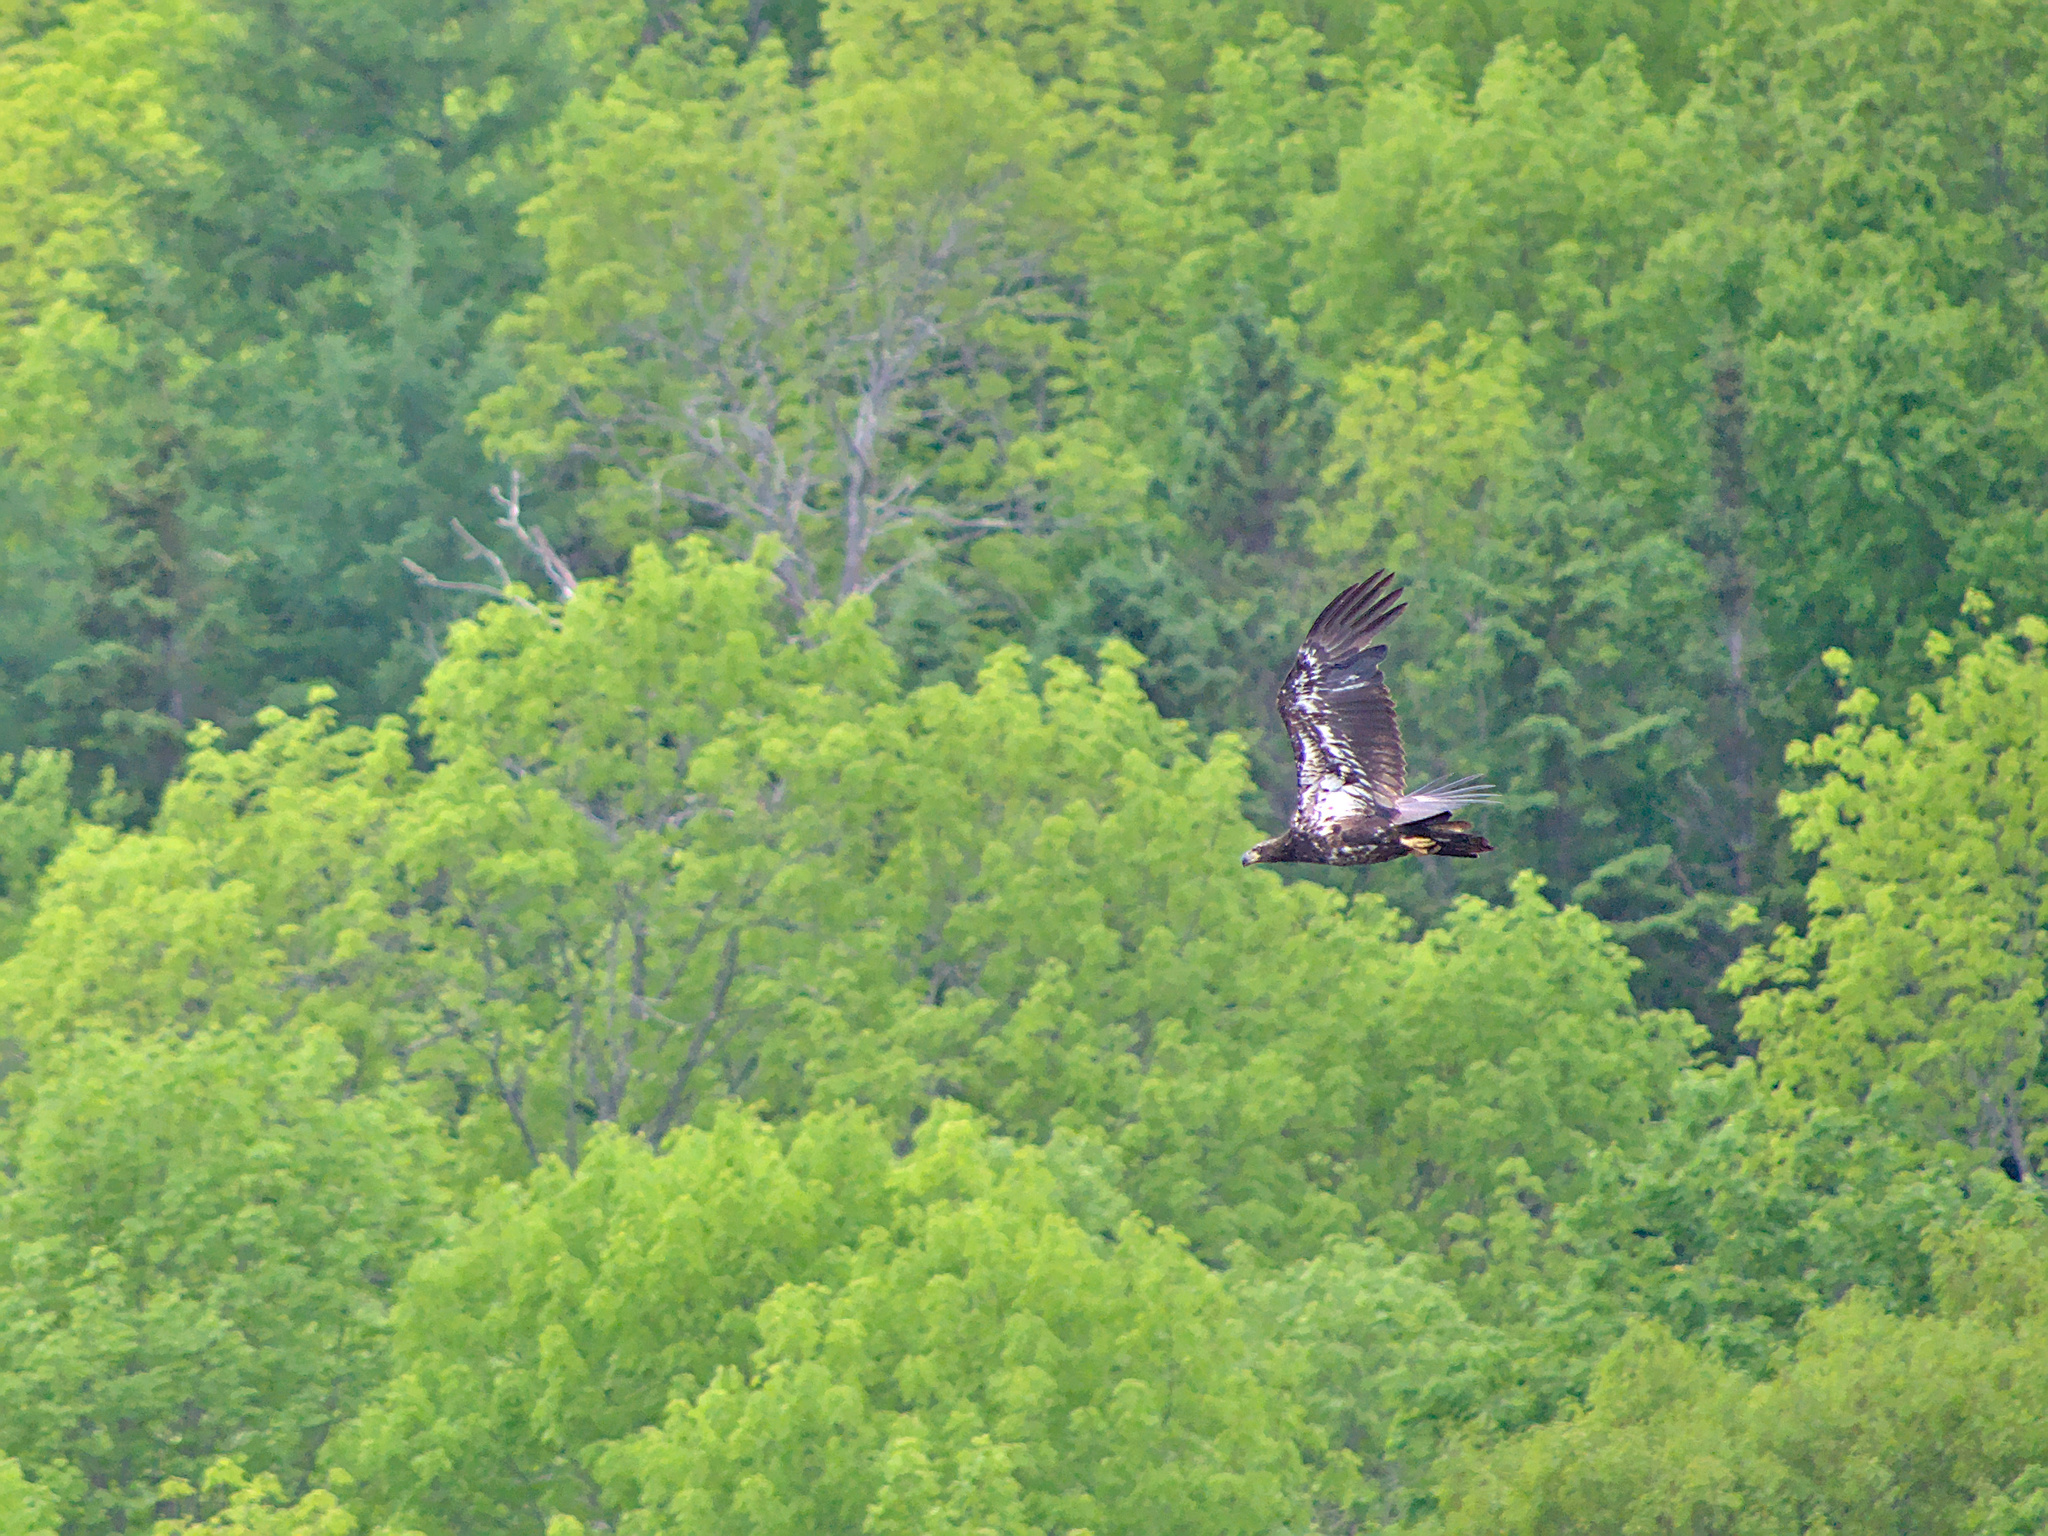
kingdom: Animalia
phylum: Chordata
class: Aves
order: Accipitriformes
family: Accipitridae
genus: Haliaeetus
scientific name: Haliaeetus leucocephalus
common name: Bald eagle
